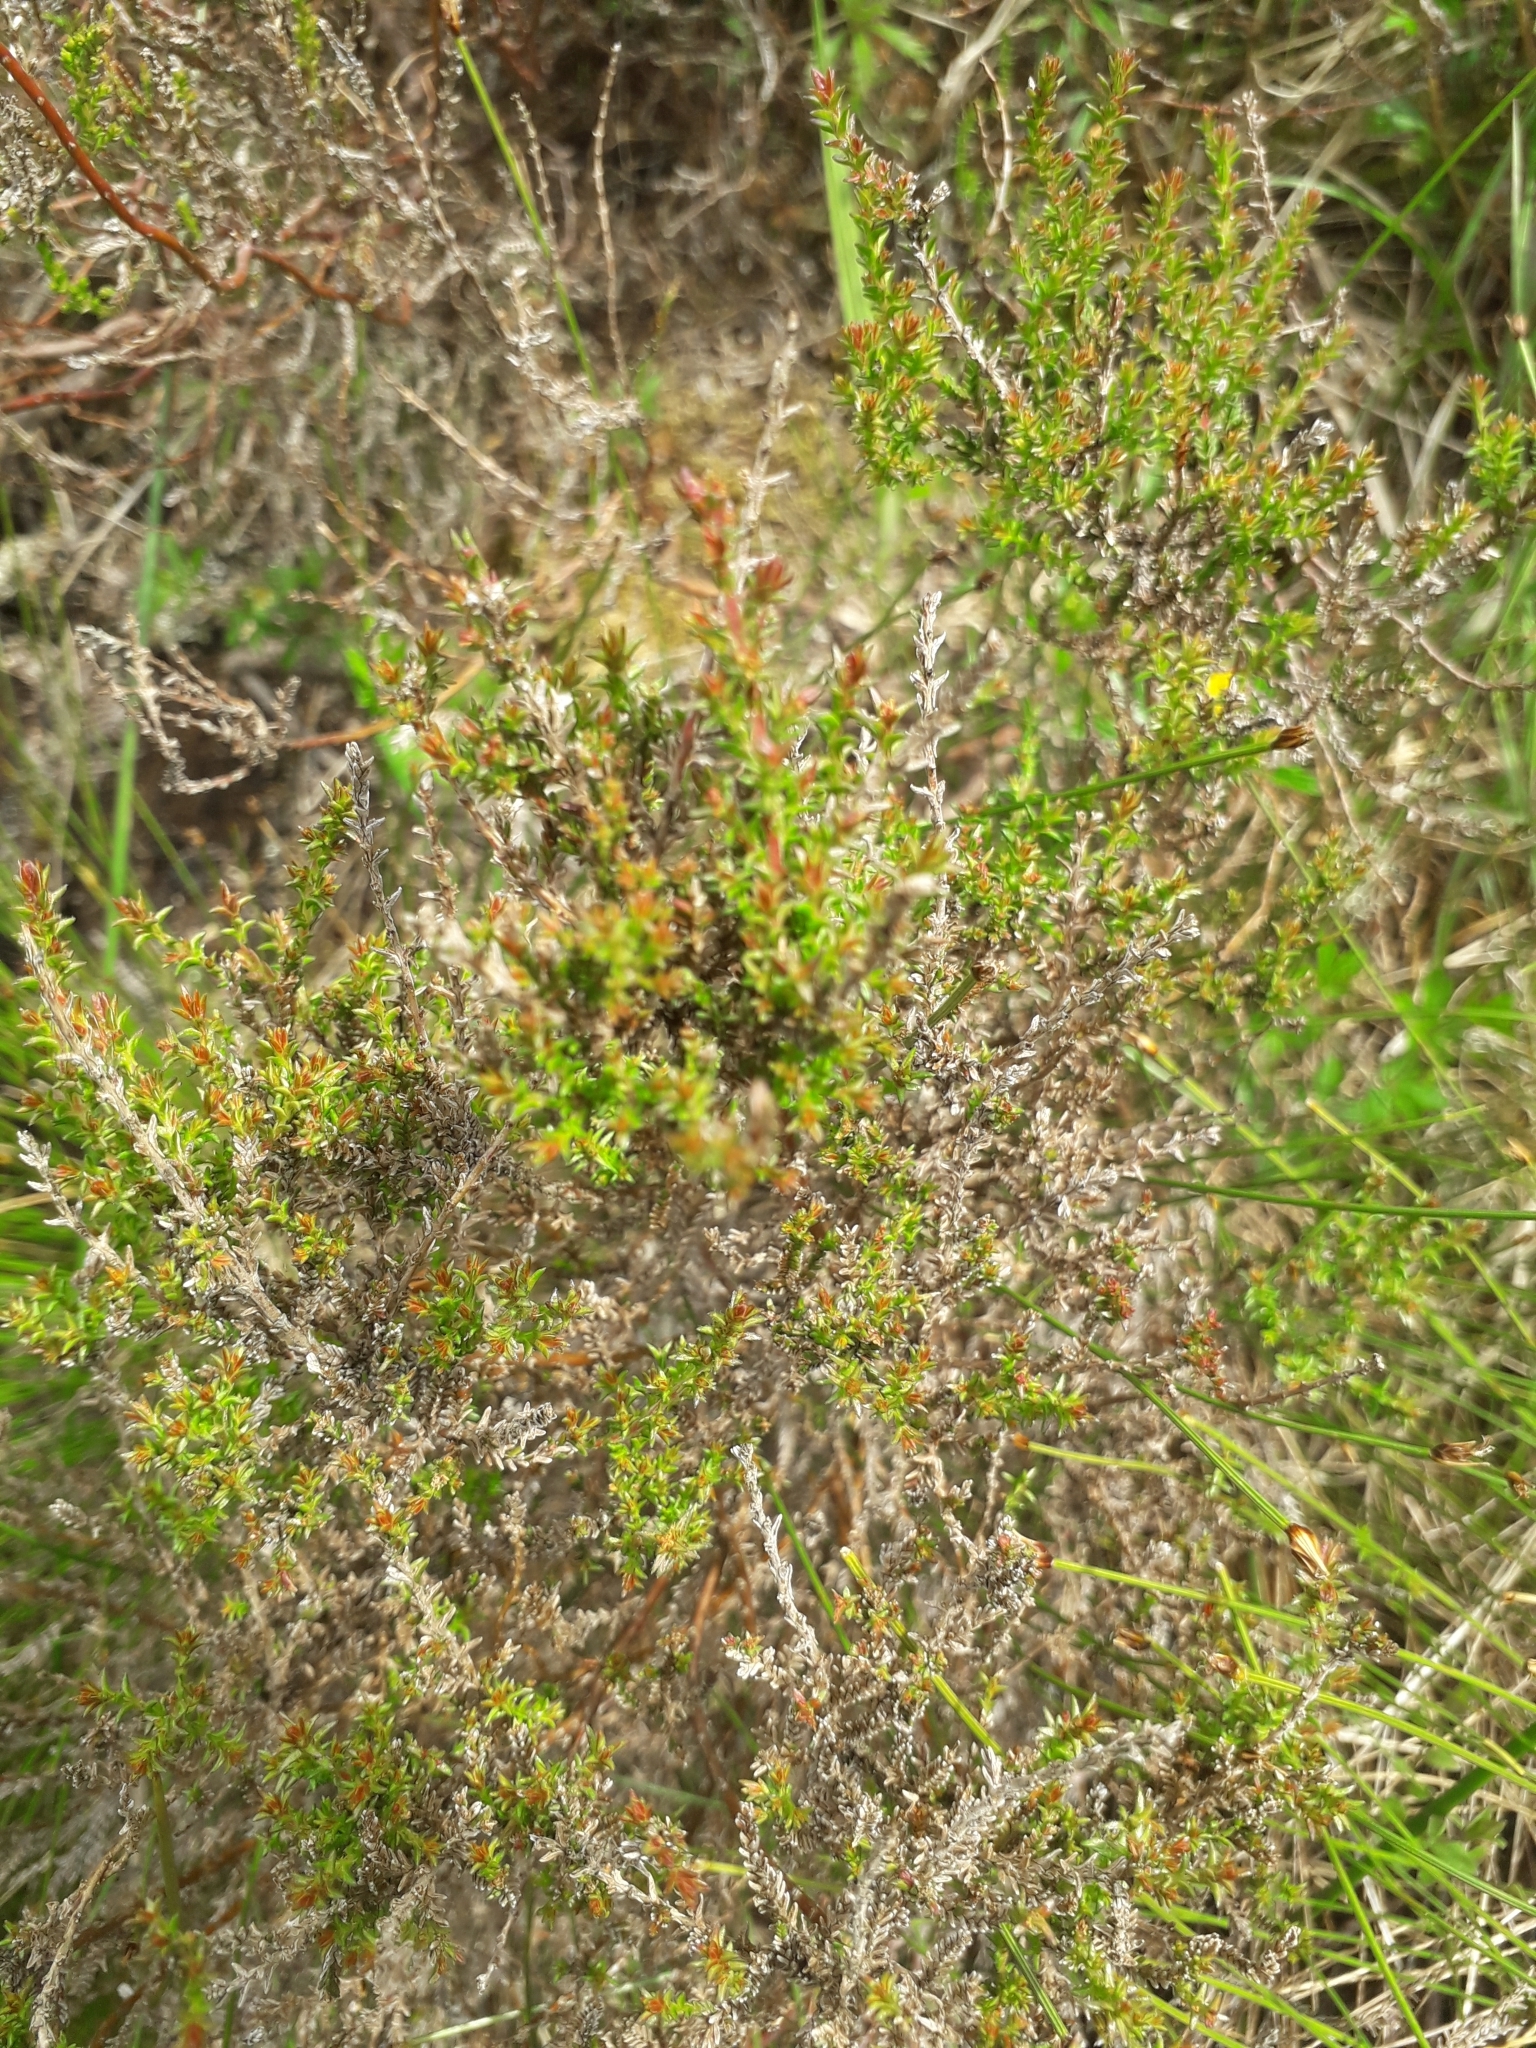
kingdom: Plantae
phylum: Tracheophyta
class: Magnoliopsida
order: Ericales
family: Ericaceae
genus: Calluna
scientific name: Calluna vulgaris
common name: Heather
